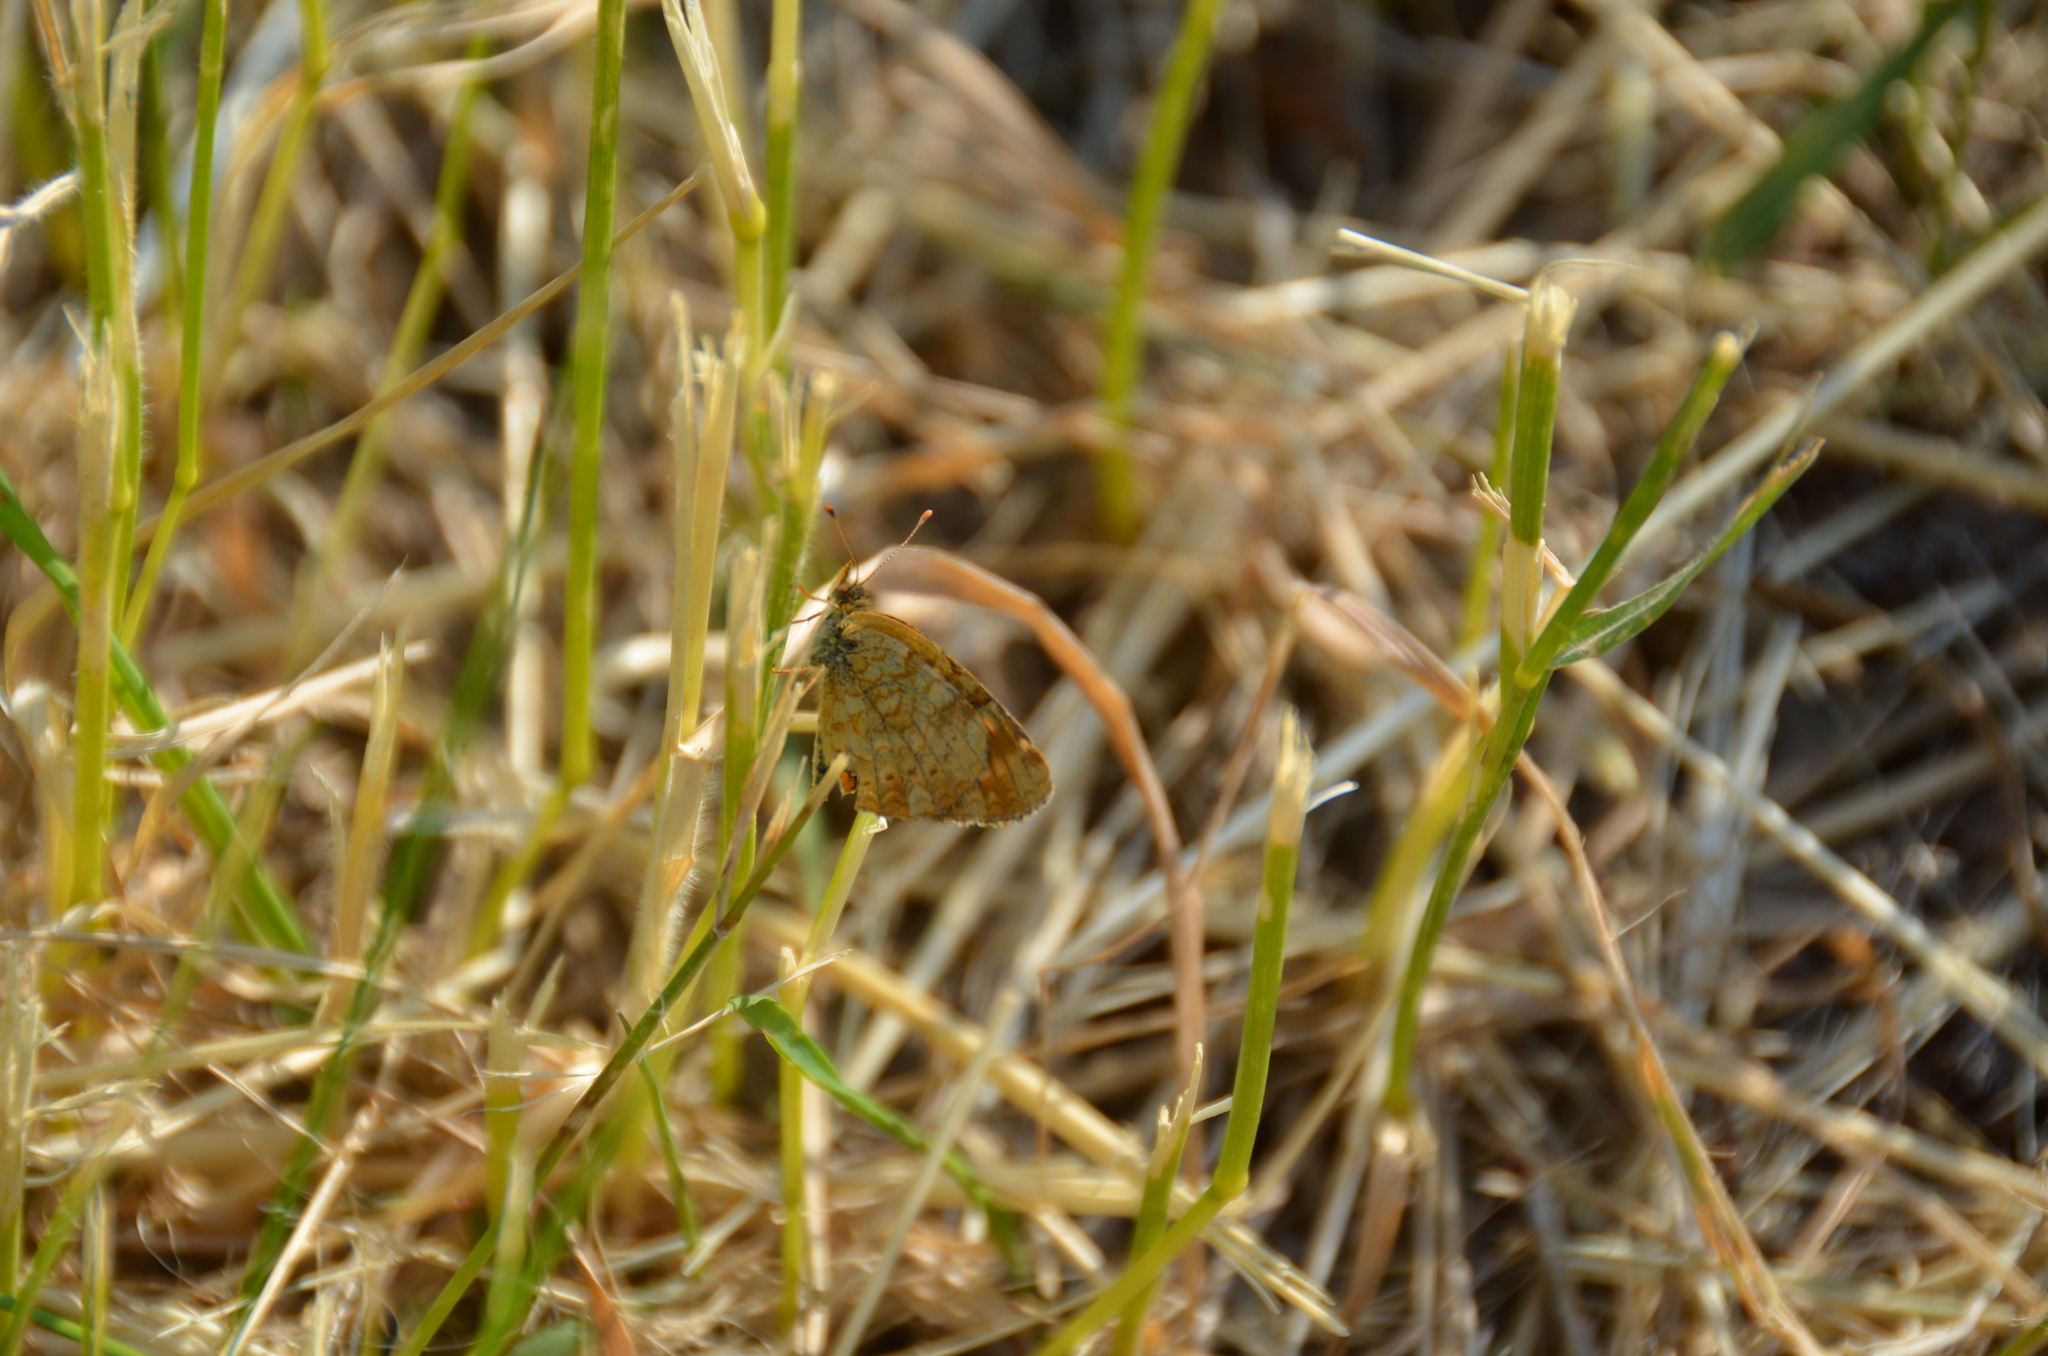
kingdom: Animalia
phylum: Arthropoda
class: Insecta
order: Lepidoptera
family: Nymphalidae
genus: Phyciodes
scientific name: Phyciodes tharos
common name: Pearl crescent
